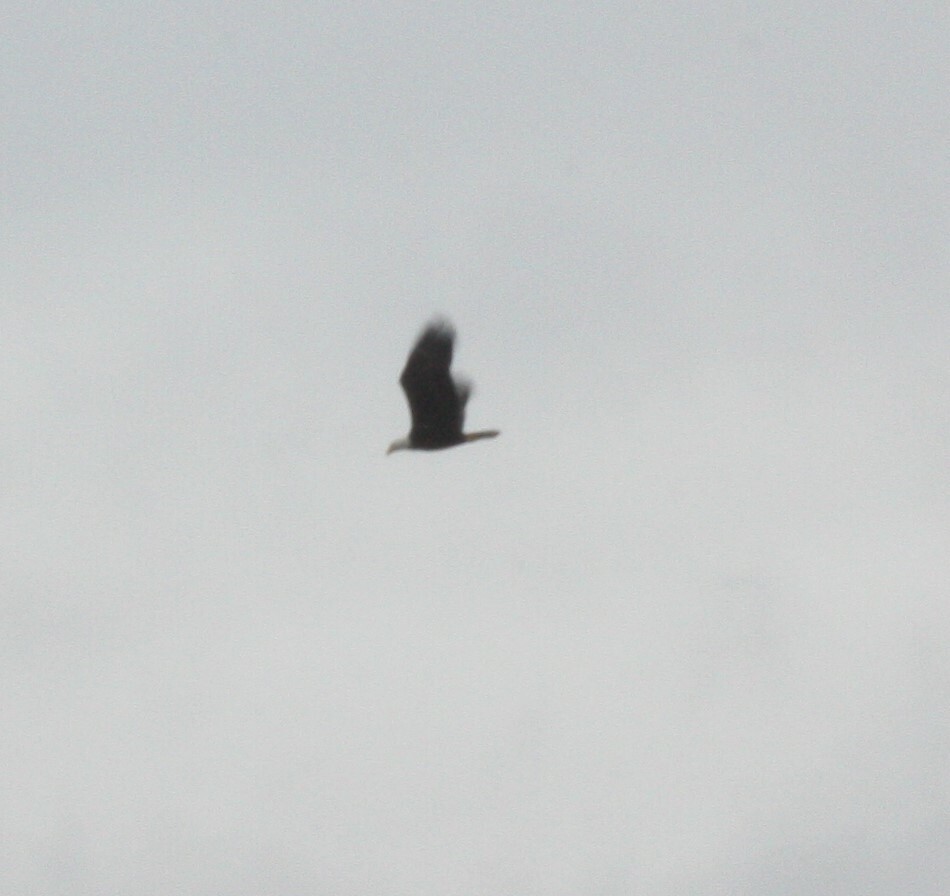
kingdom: Animalia
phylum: Chordata
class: Aves
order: Accipitriformes
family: Accipitridae
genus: Haliaeetus
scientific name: Haliaeetus leucocephalus
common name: Bald eagle
